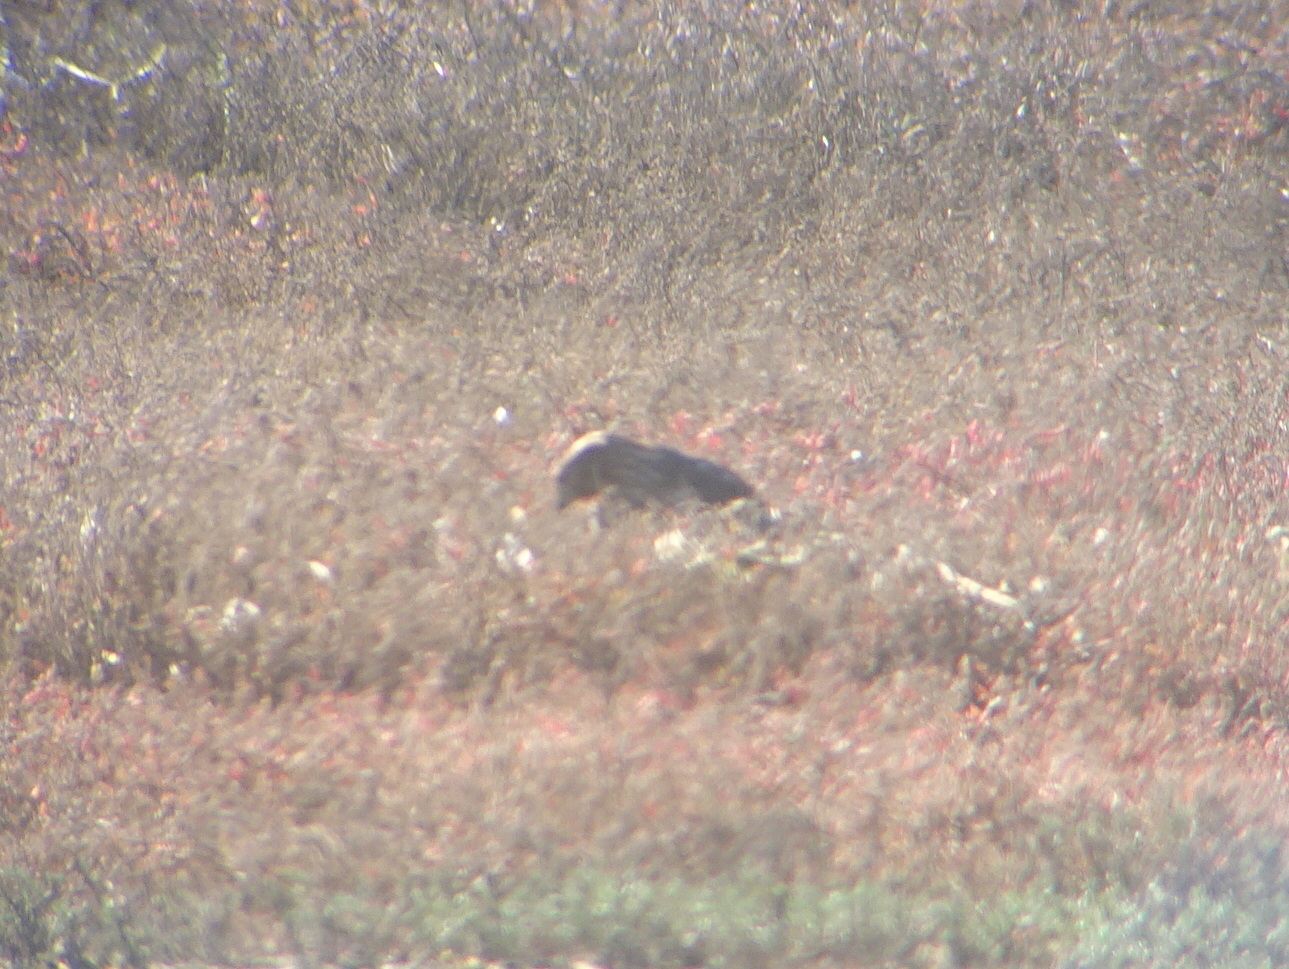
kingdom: Animalia
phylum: Chordata
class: Aves
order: Accipitriformes
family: Accipitridae
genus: Accipiter
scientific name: Accipiter cooperii
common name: Cooper's hawk
